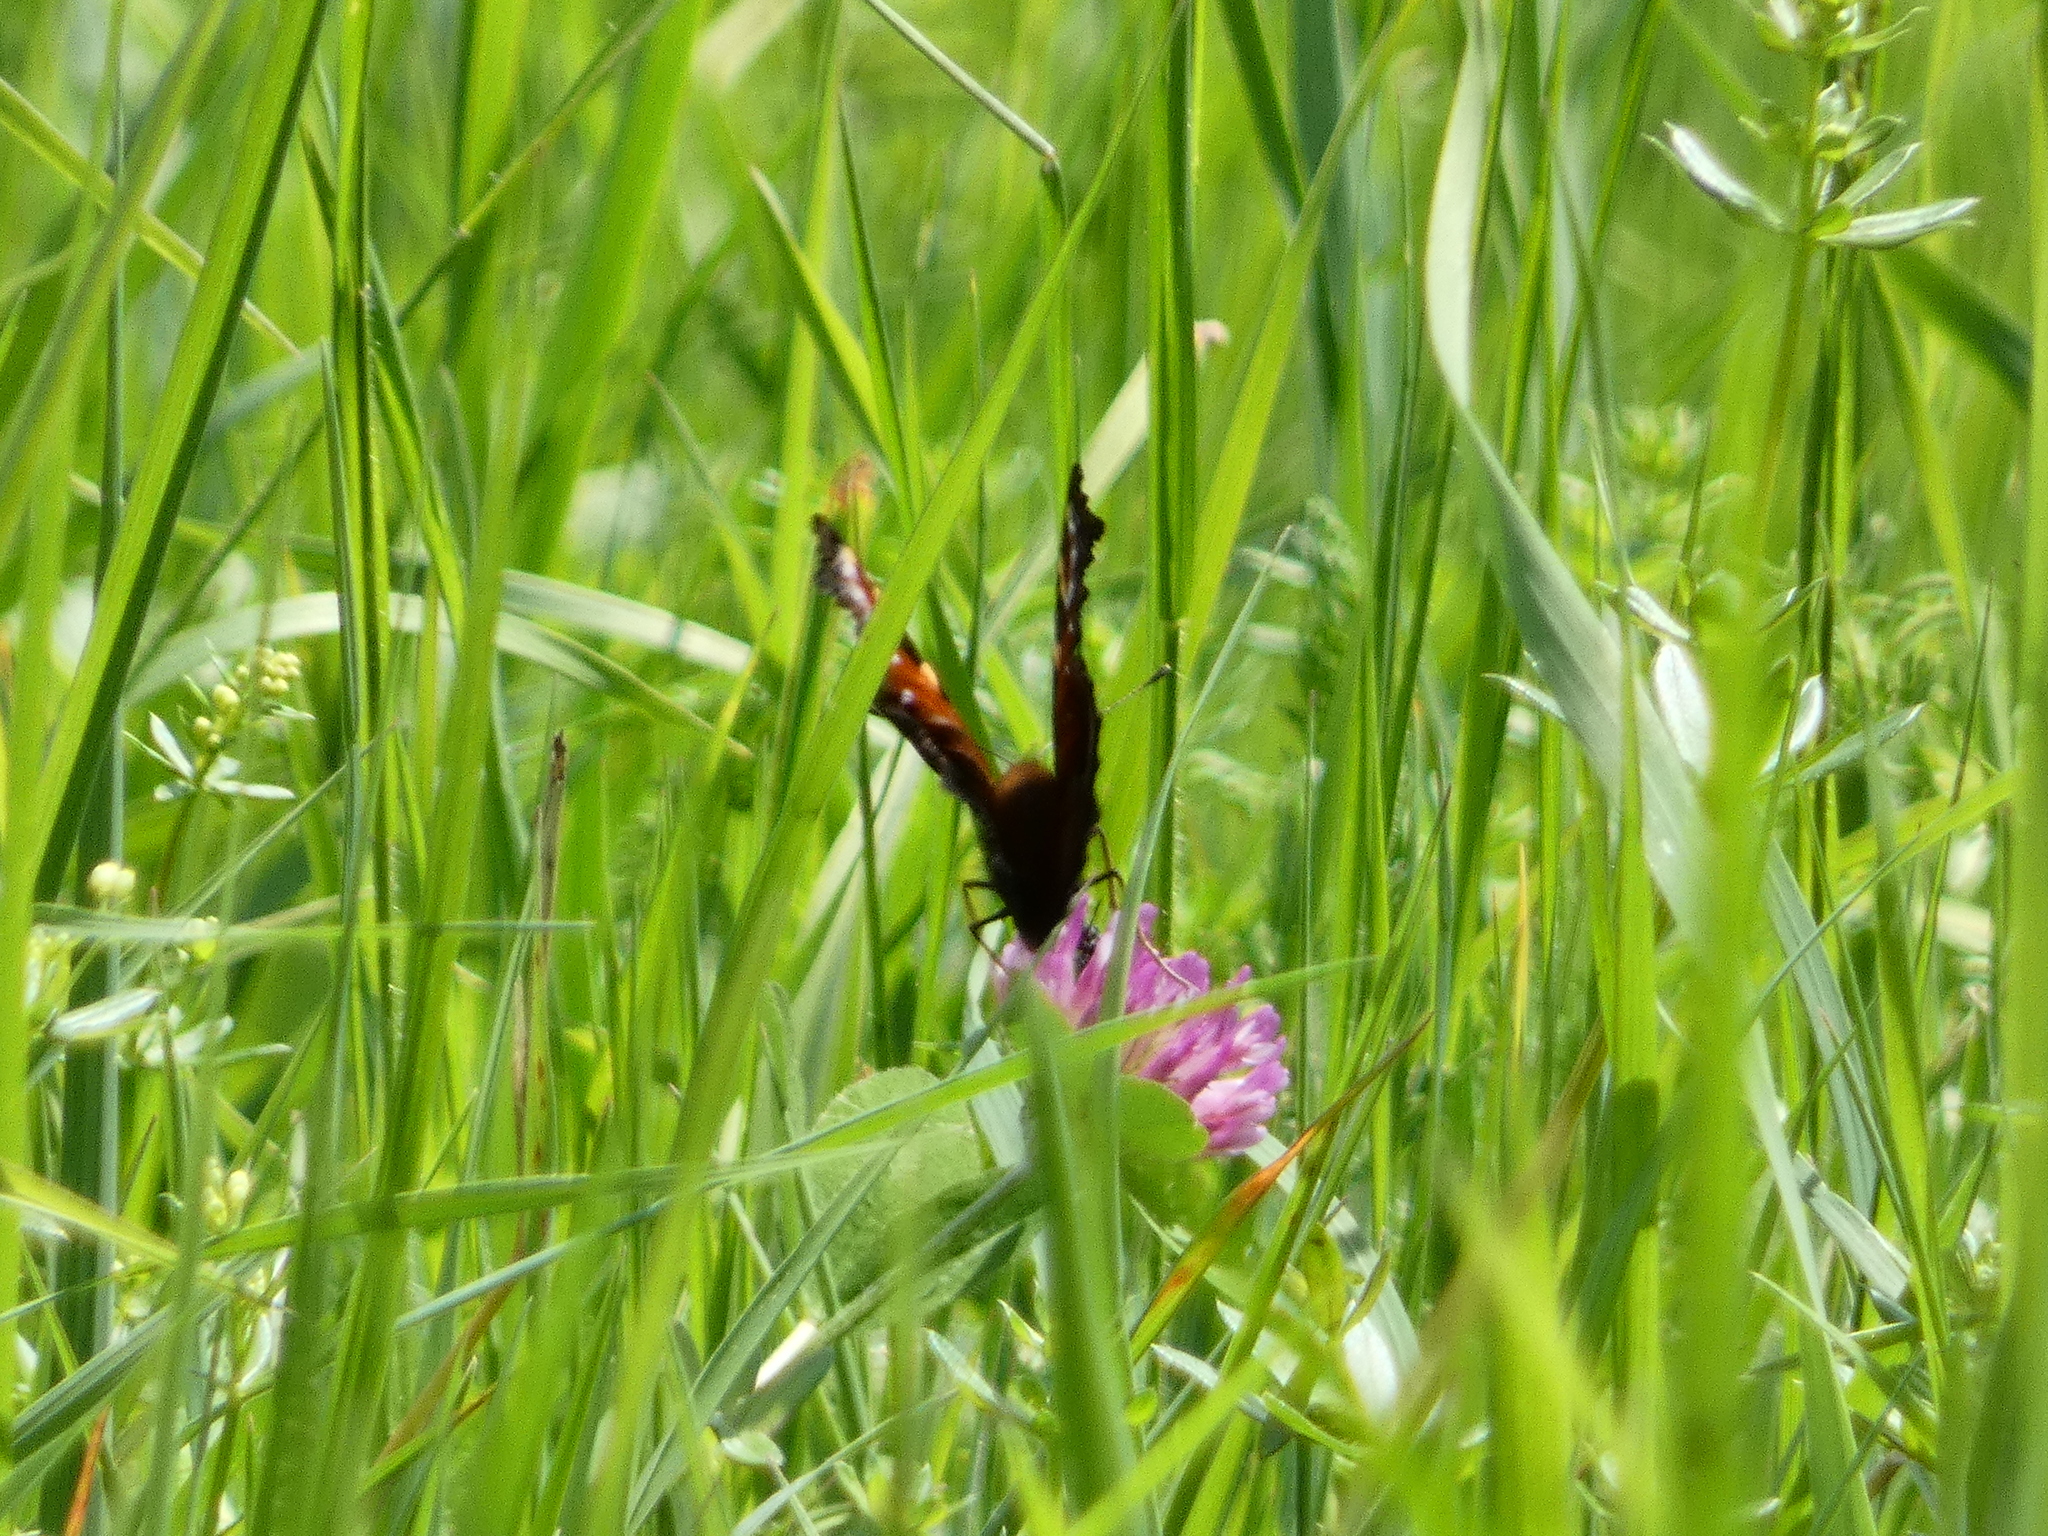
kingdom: Animalia
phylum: Arthropoda
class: Insecta
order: Lepidoptera
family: Nymphalidae
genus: Aglais
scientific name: Aglais io
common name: Peacock
